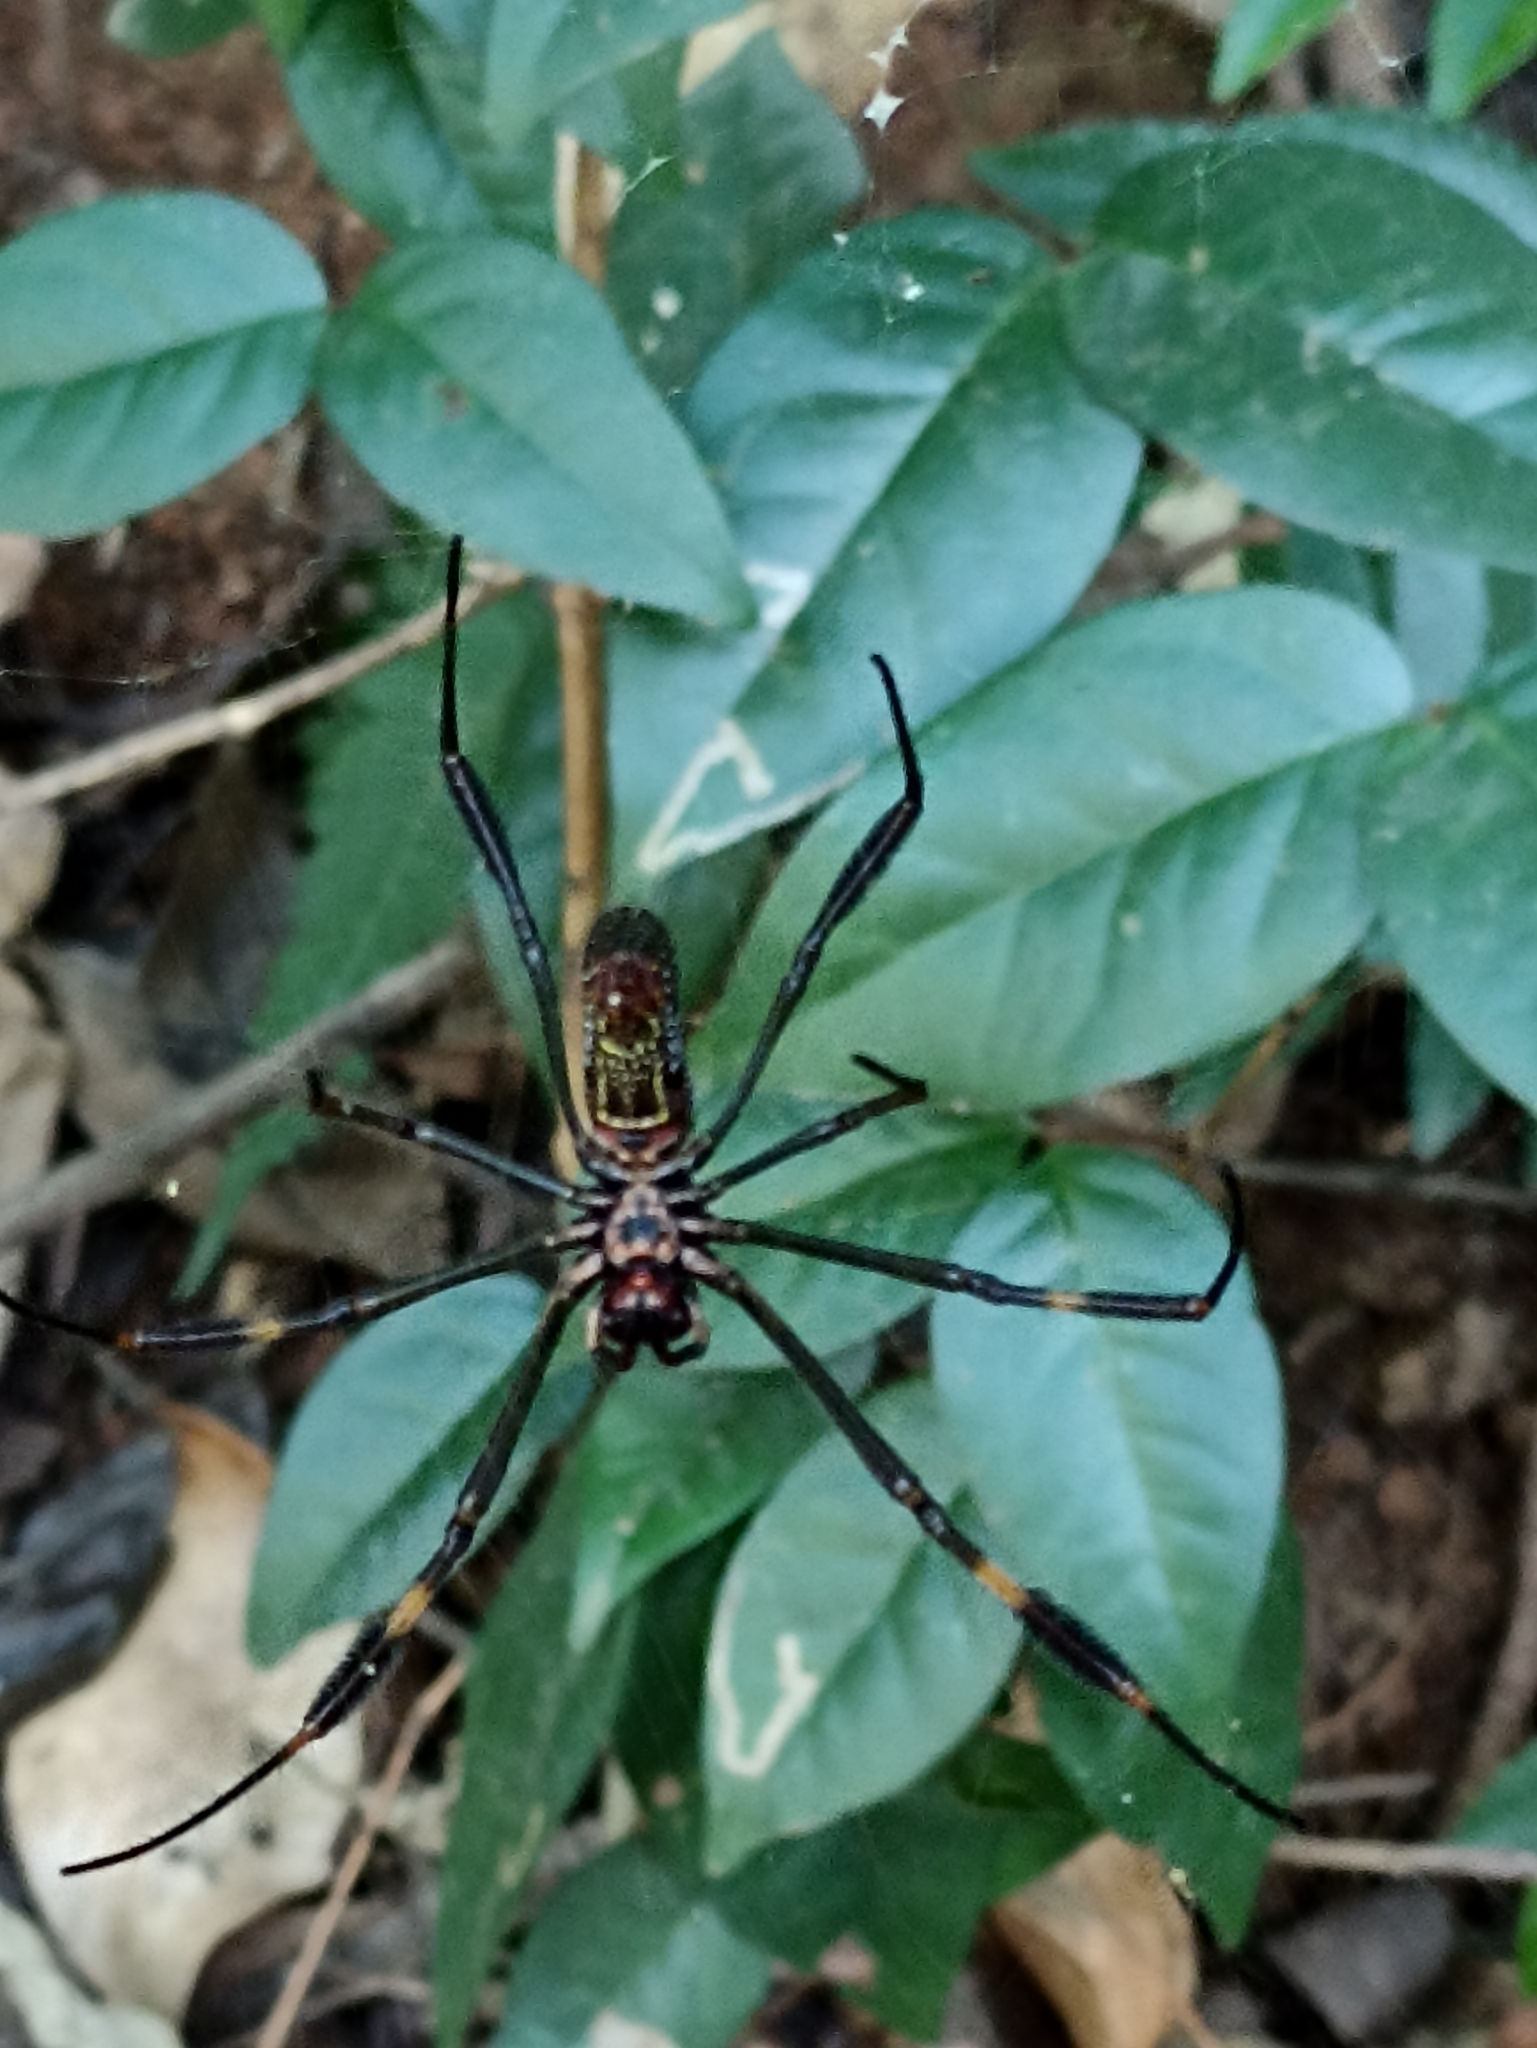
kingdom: Animalia
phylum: Arthropoda
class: Arachnida
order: Araneae
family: Araneidae
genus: Trichonephila
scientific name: Trichonephila clavipes
